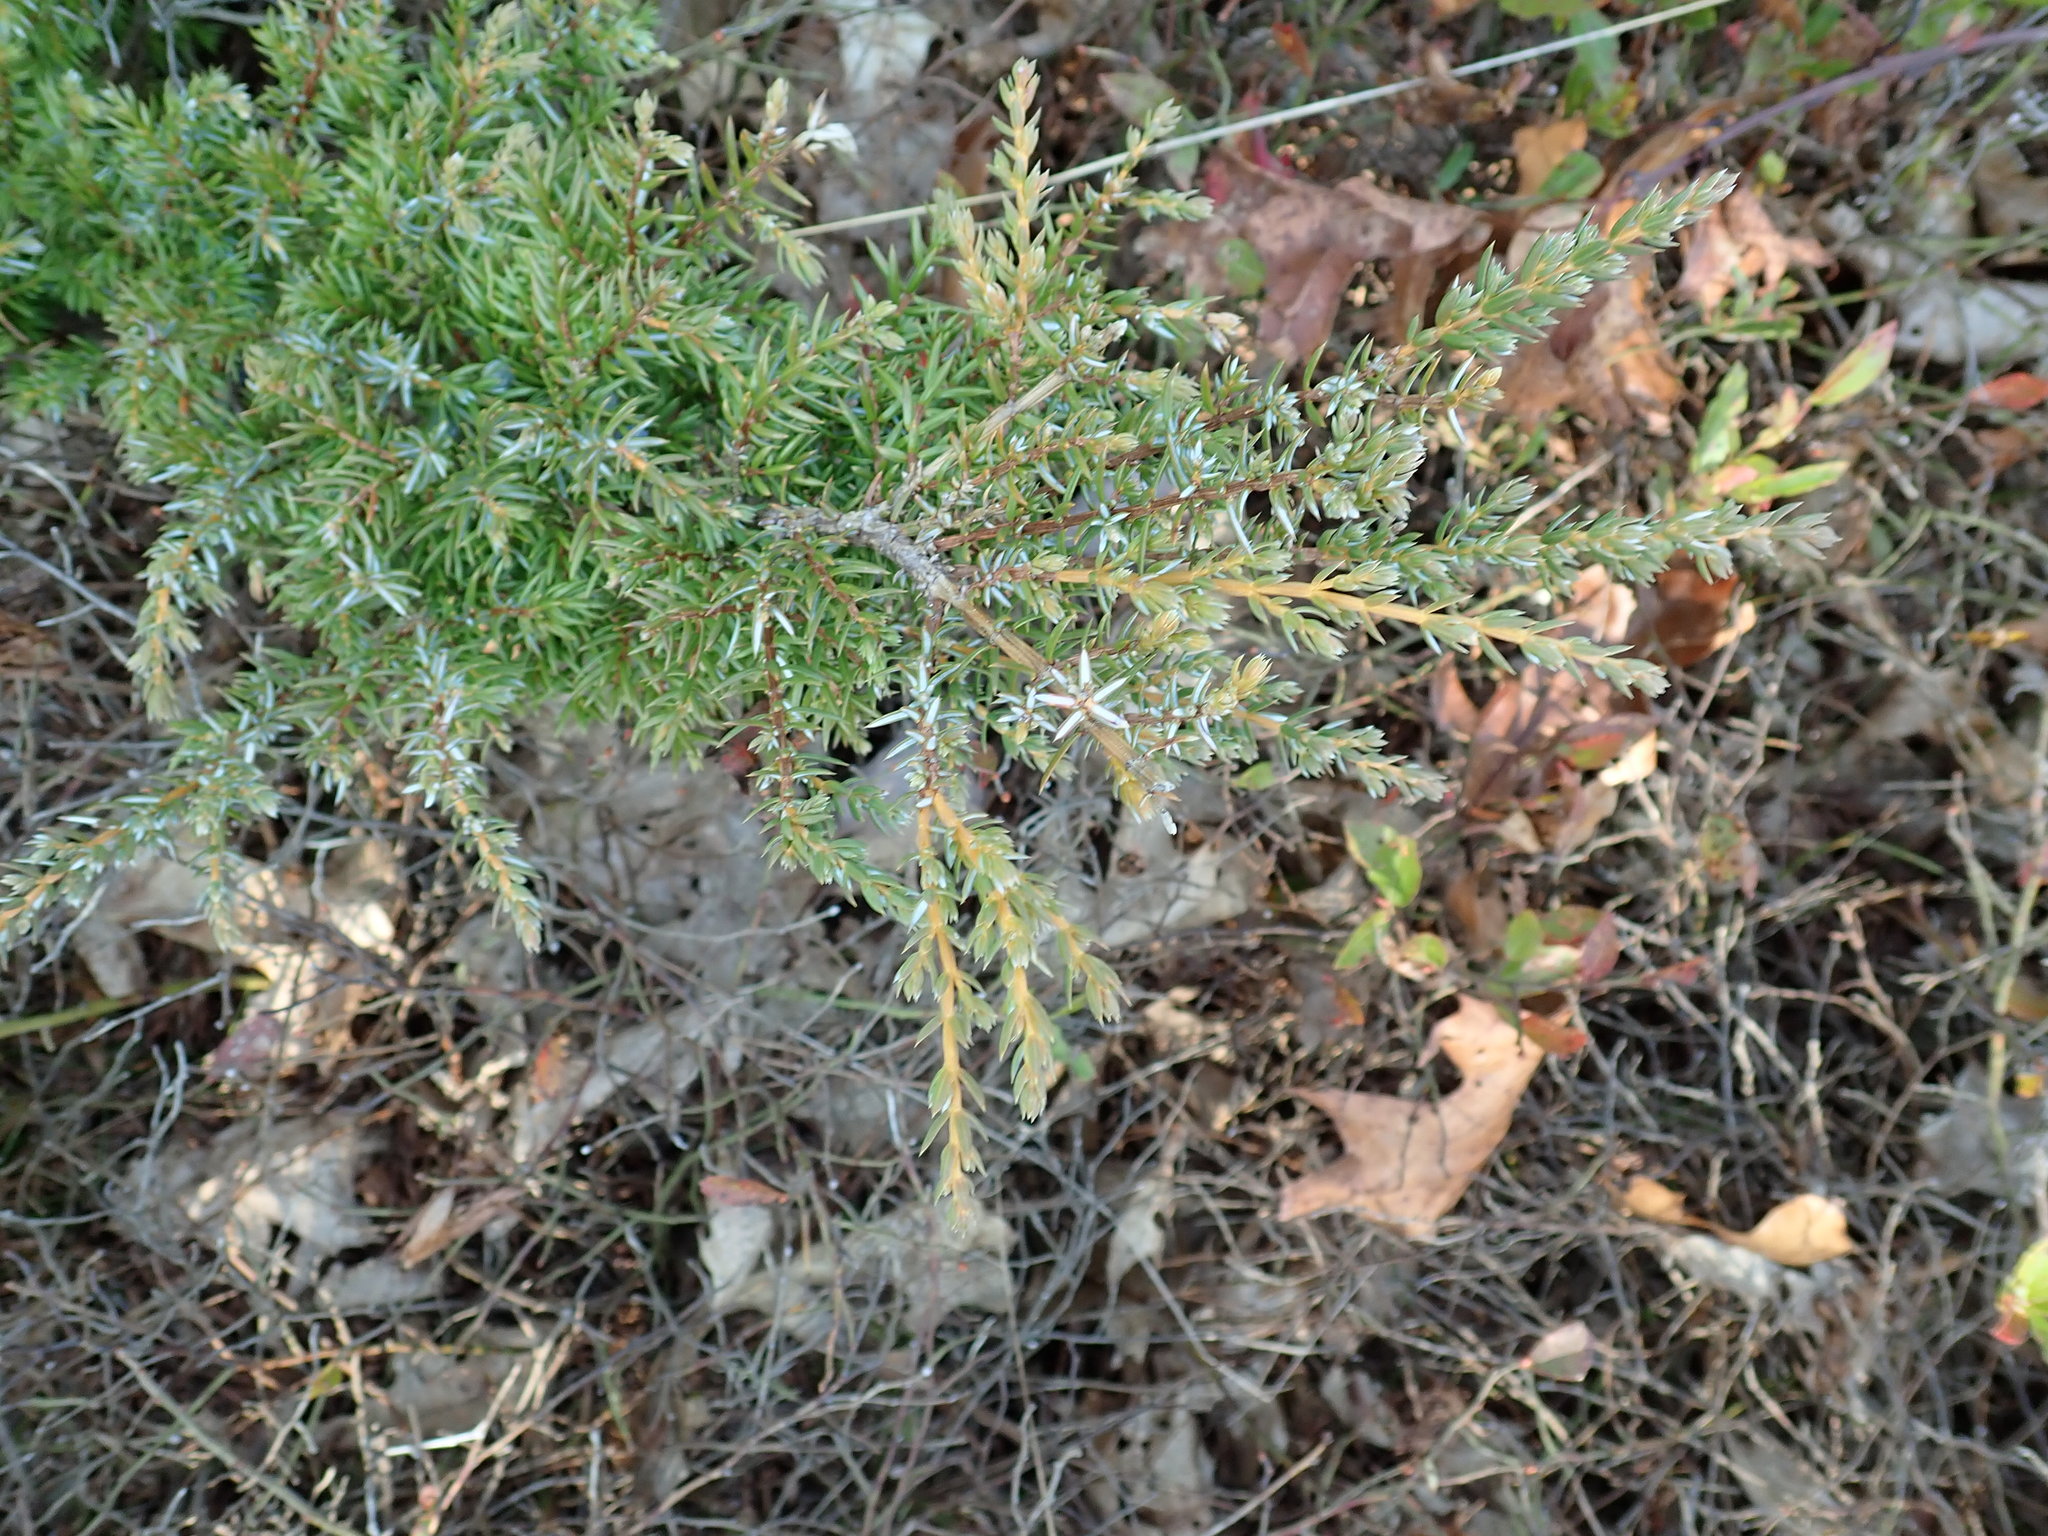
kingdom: Plantae
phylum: Tracheophyta
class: Pinopsida
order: Pinales
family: Cupressaceae
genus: Juniperus
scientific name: Juniperus communis
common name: Common juniper
